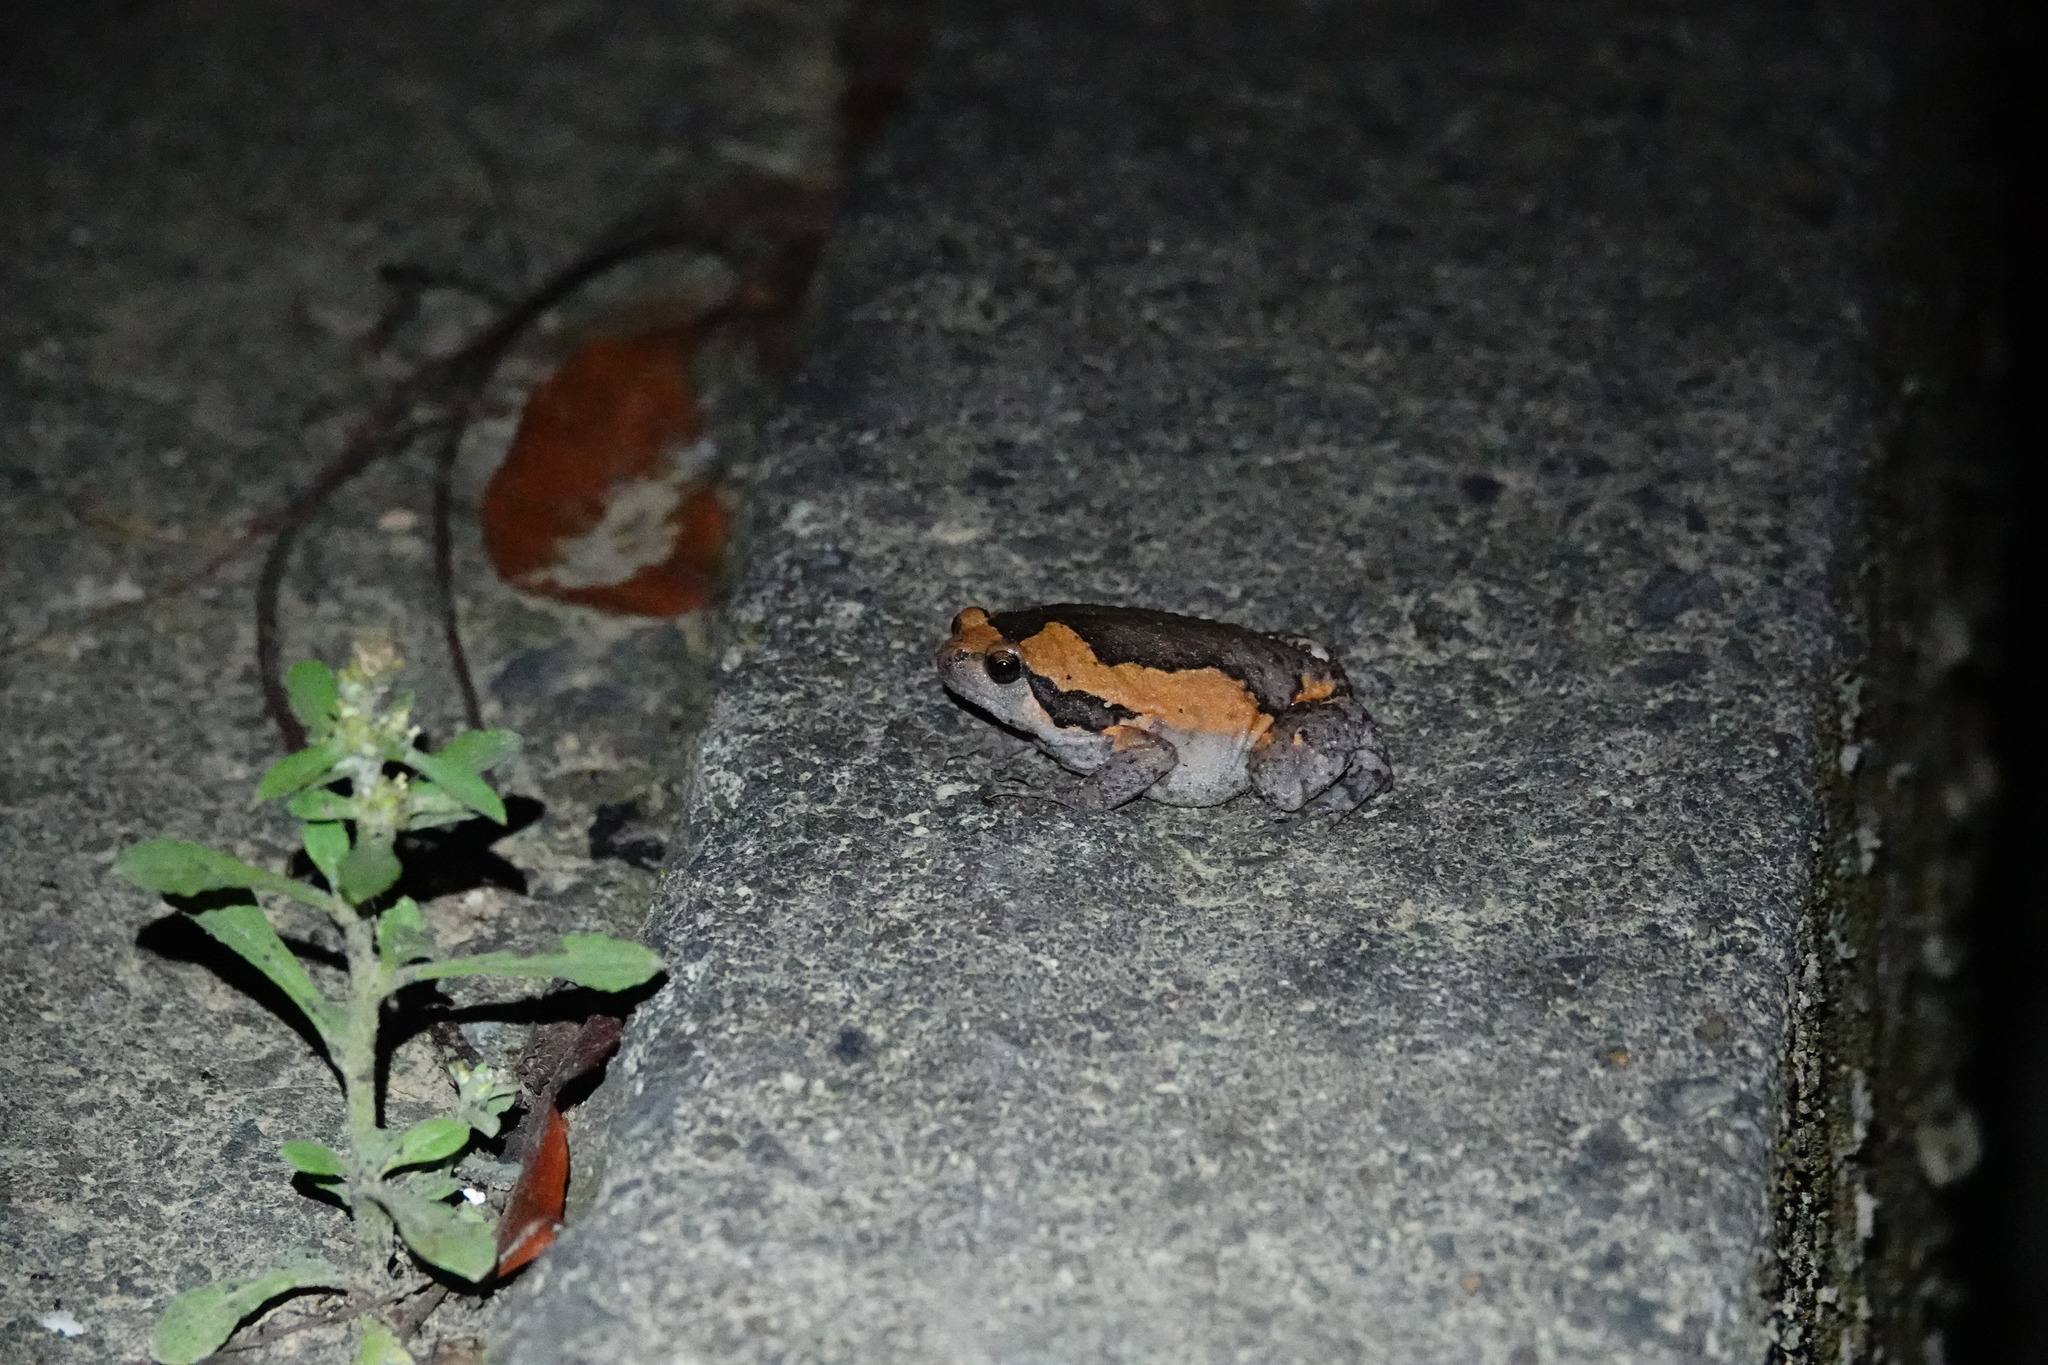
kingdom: Animalia
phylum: Chordata
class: Amphibia
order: Anura
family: Microhylidae
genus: Kaloula
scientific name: Kaloula pulchra
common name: Common,banded bullfrog
